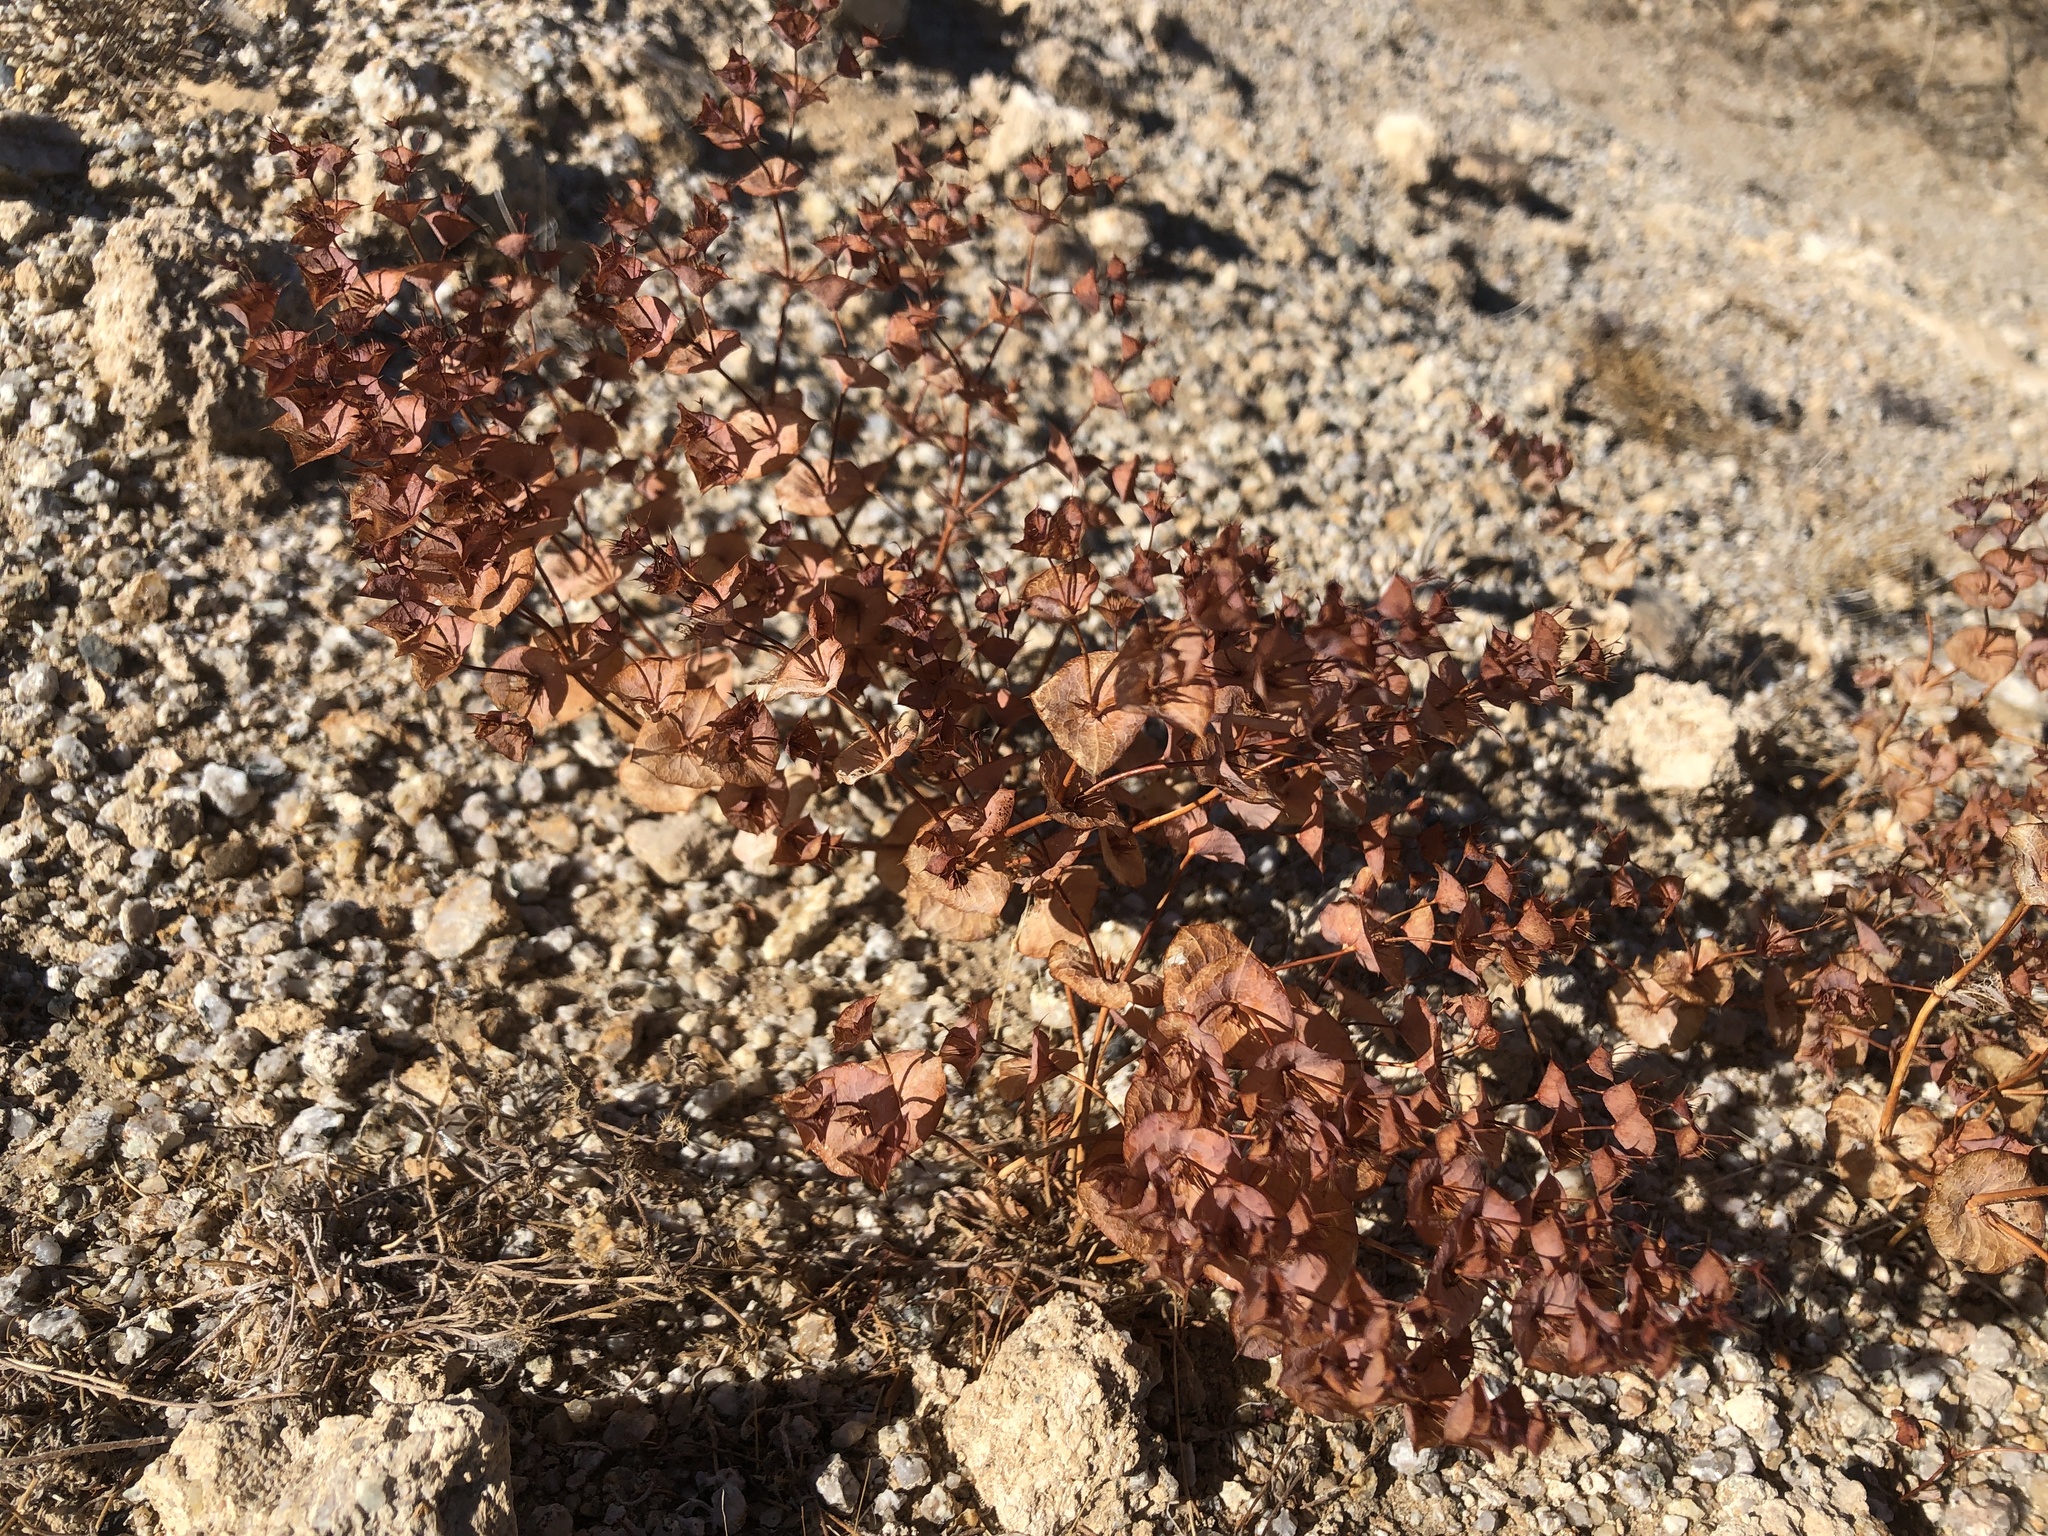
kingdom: Plantae
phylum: Tracheophyta
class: Magnoliopsida
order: Caryophyllales
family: Polygonaceae
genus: Oxytheca
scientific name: Oxytheca perfoliata
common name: Round-leaf puncturebract
